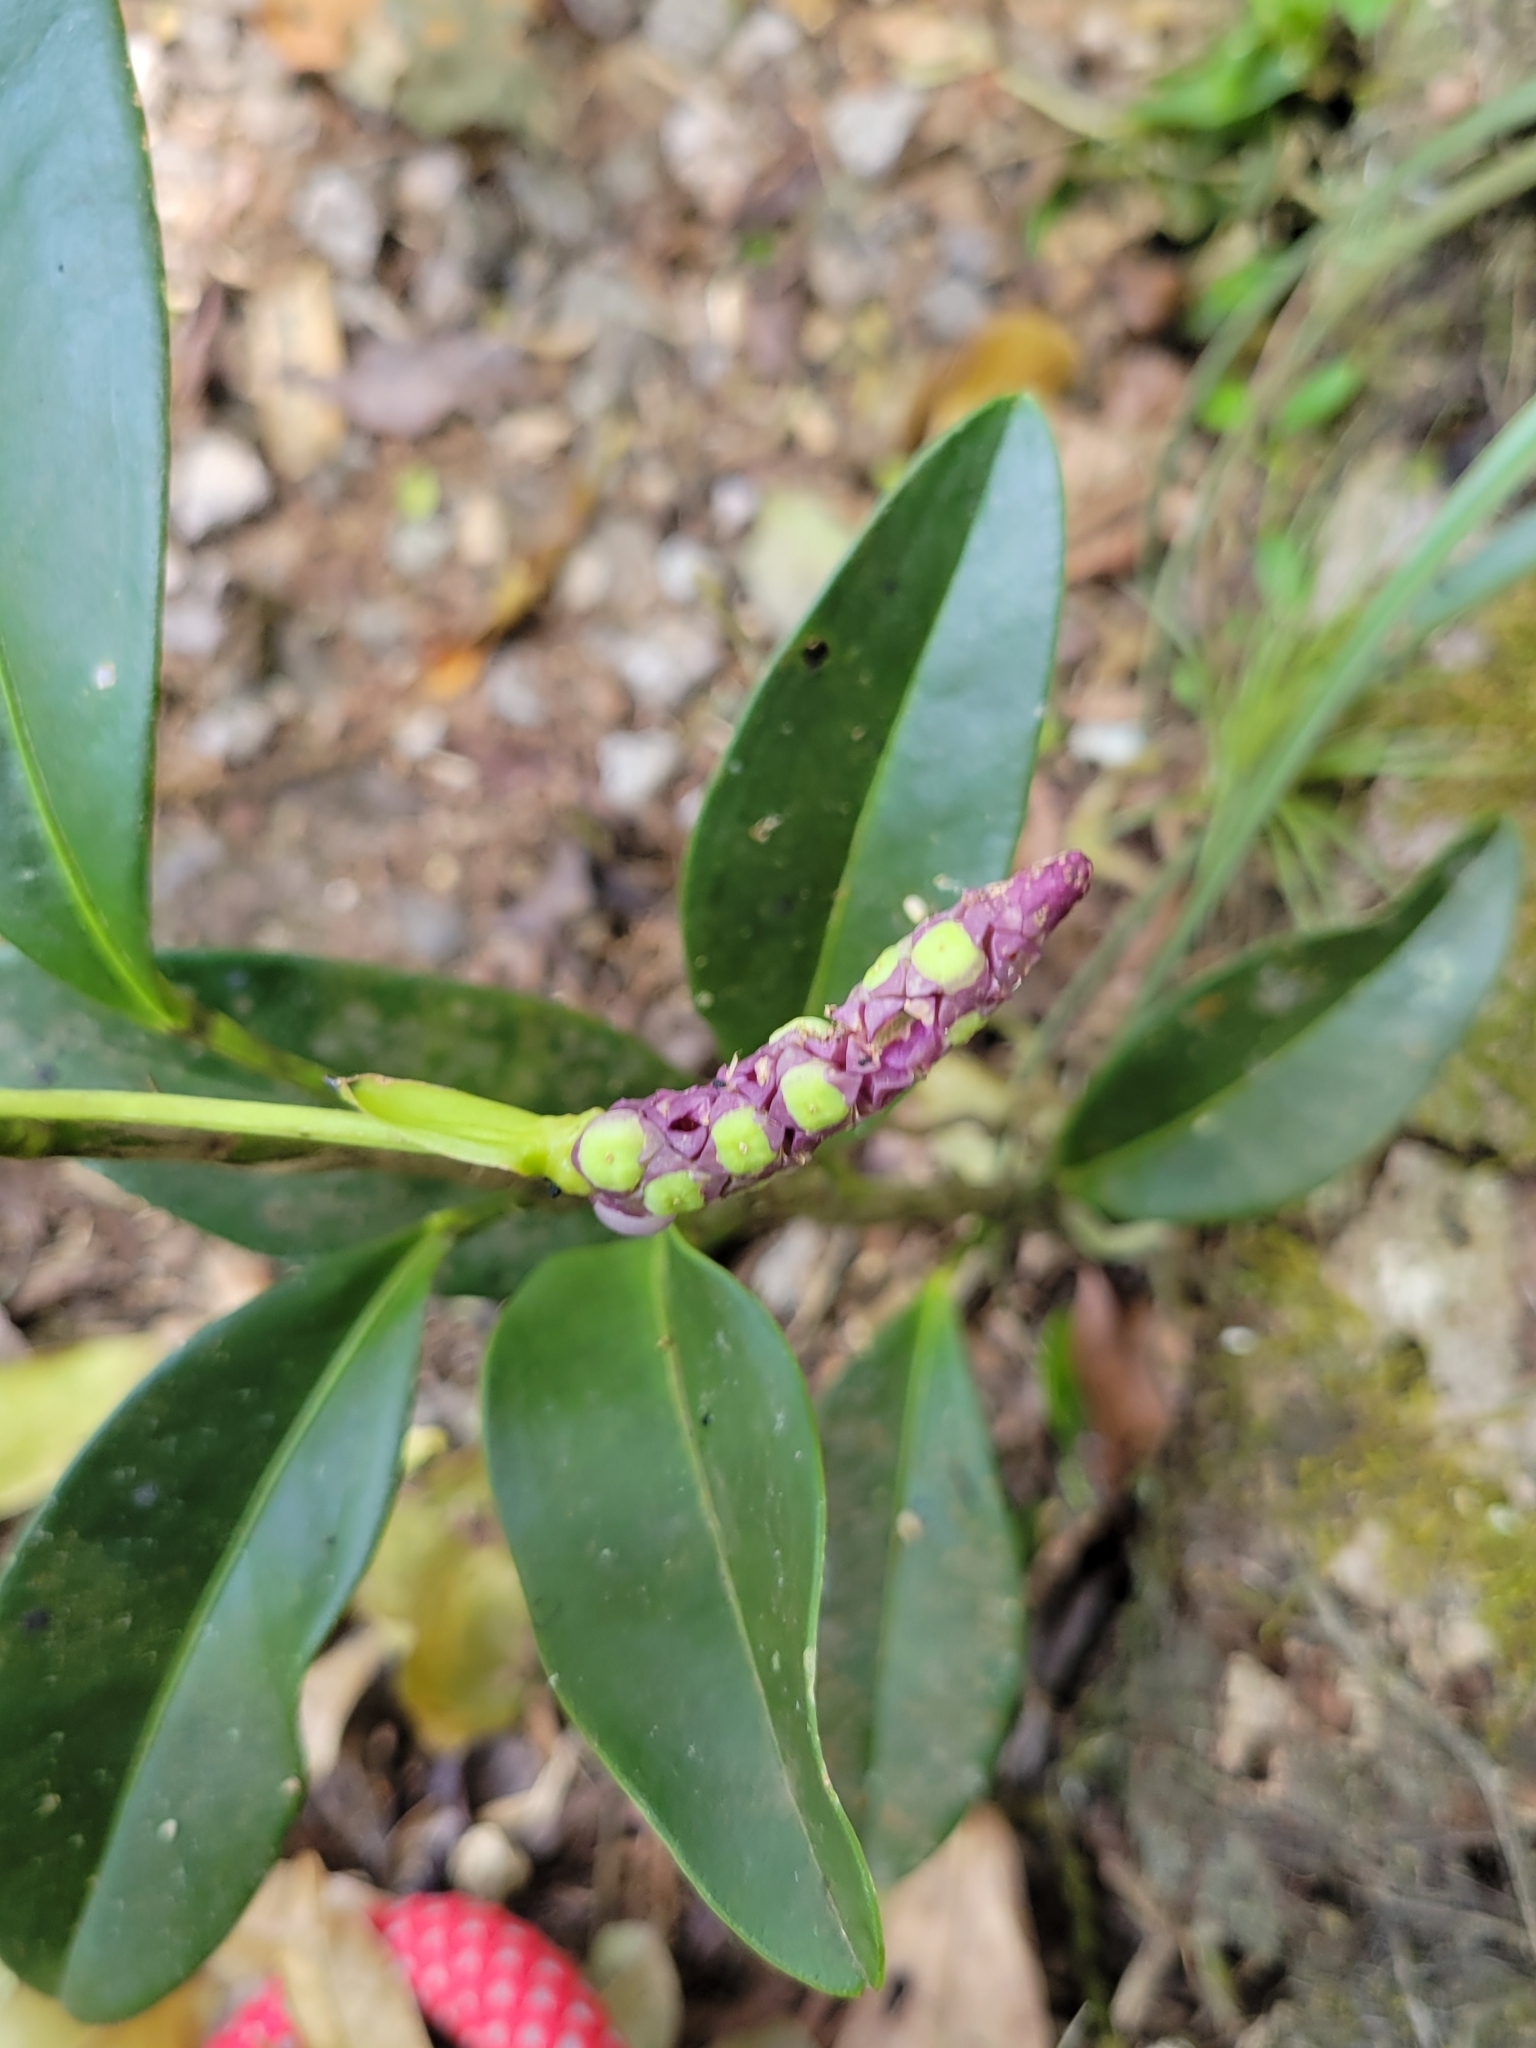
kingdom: Plantae
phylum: Tracheophyta
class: Liliopsida
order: Alismatales
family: Araceae
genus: Anthurium
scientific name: Anthurium scandens
